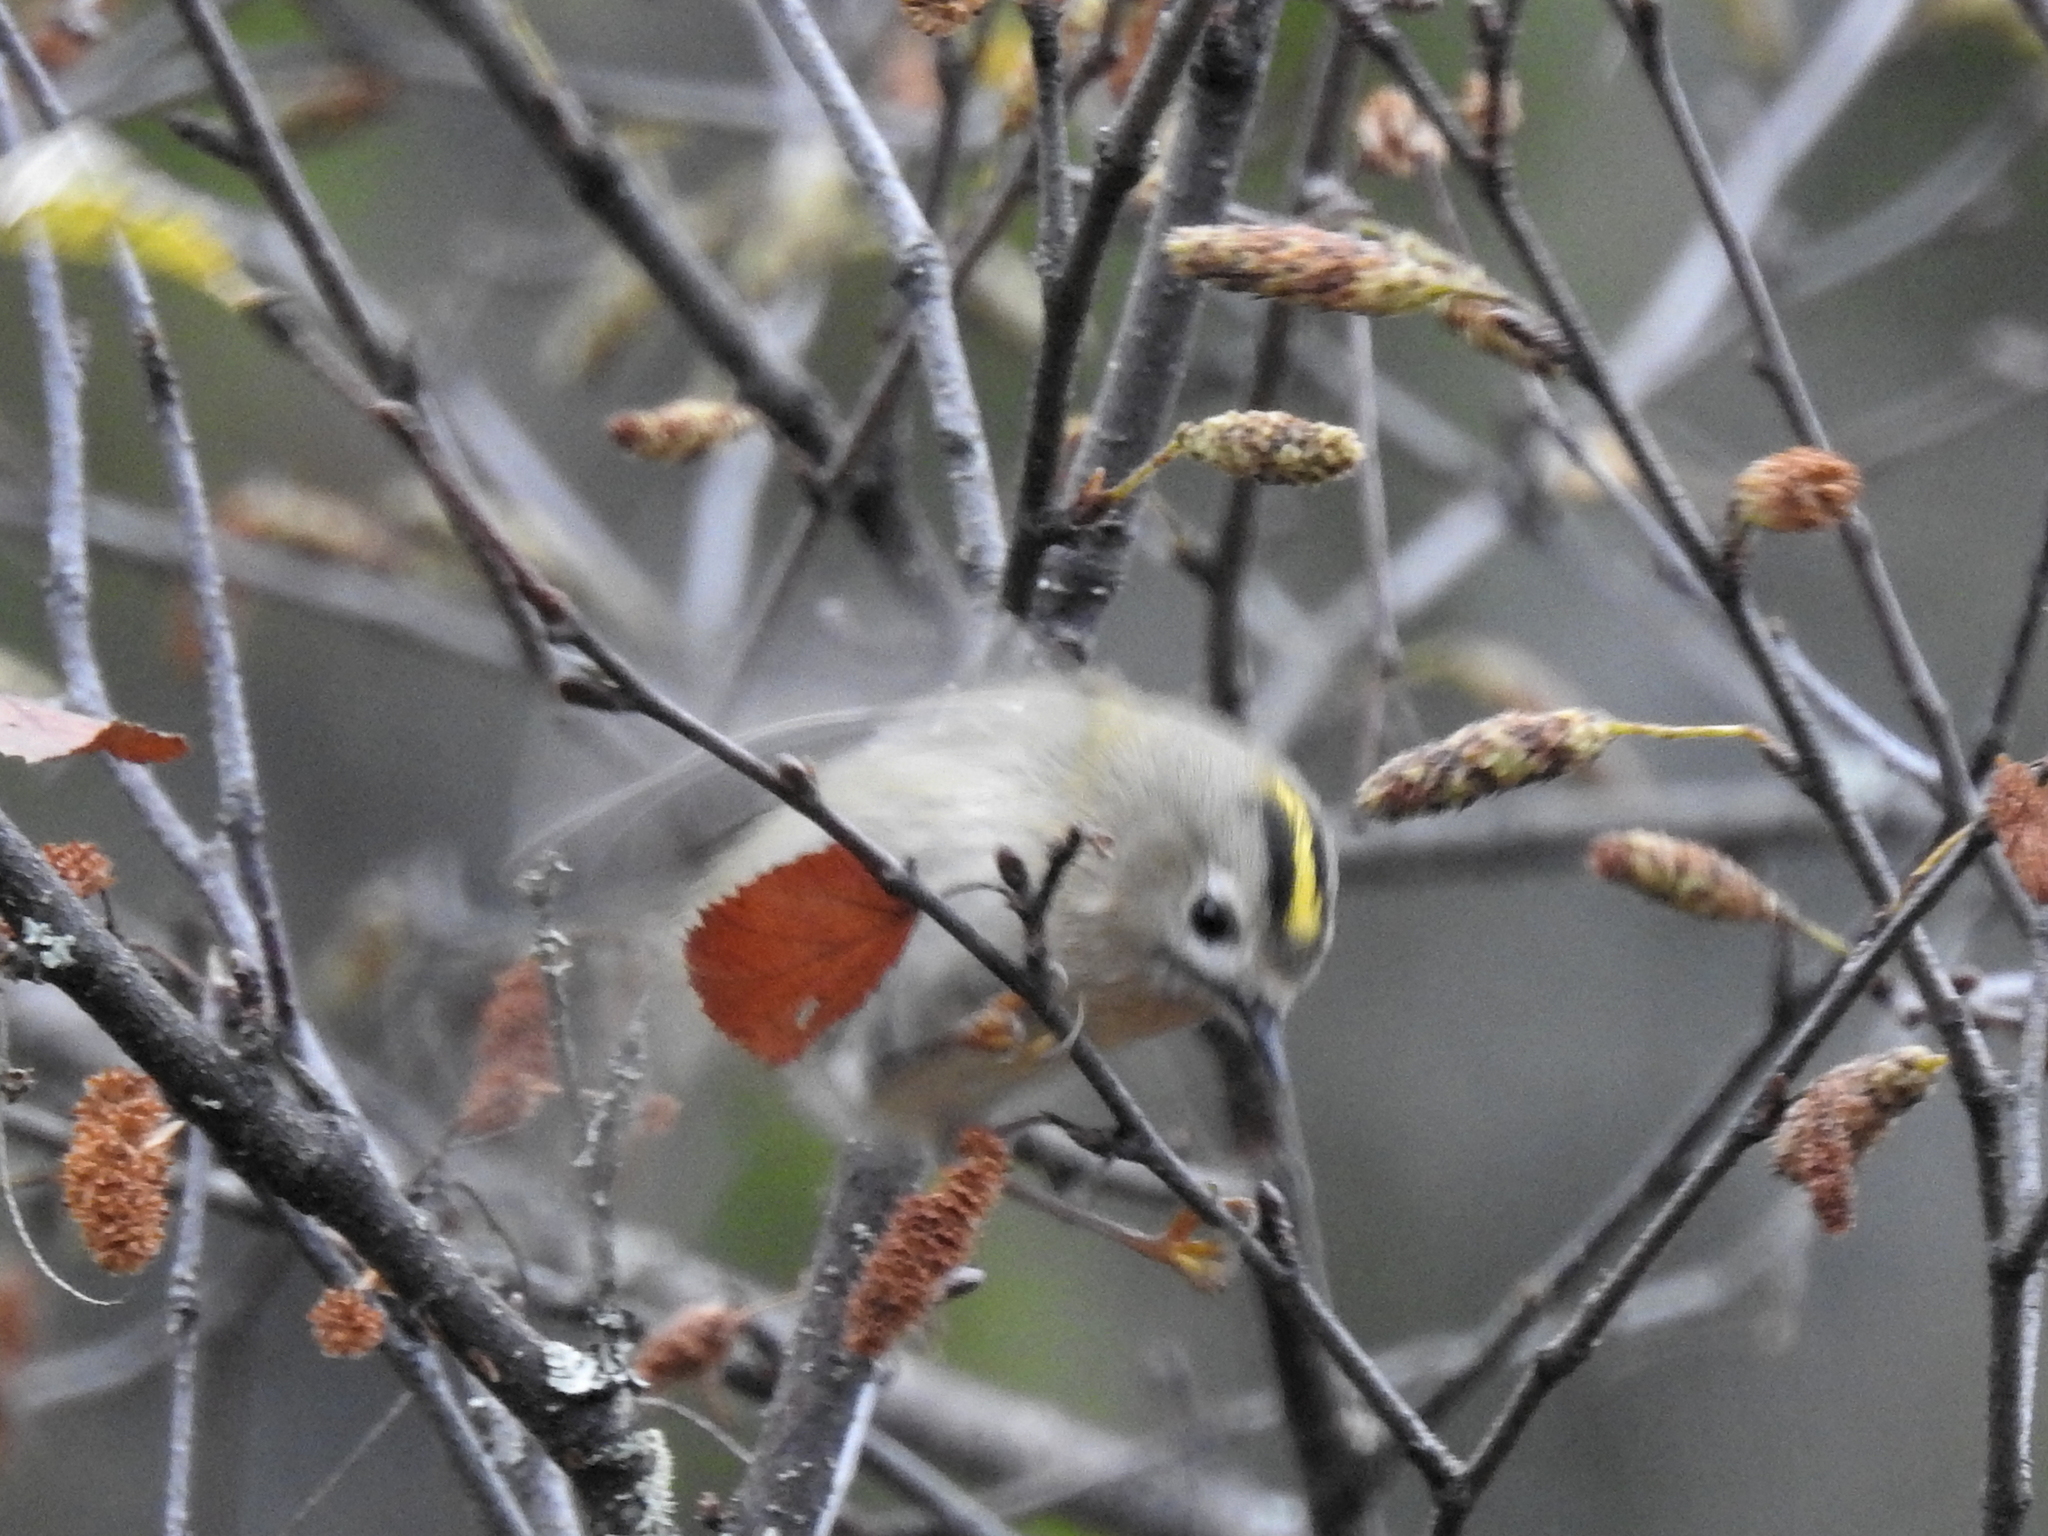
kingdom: Animalia
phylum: Chordata
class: Aves
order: Passeriformes
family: Regulidae
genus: Regulus
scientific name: Regulus regulus
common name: Goldcrest
